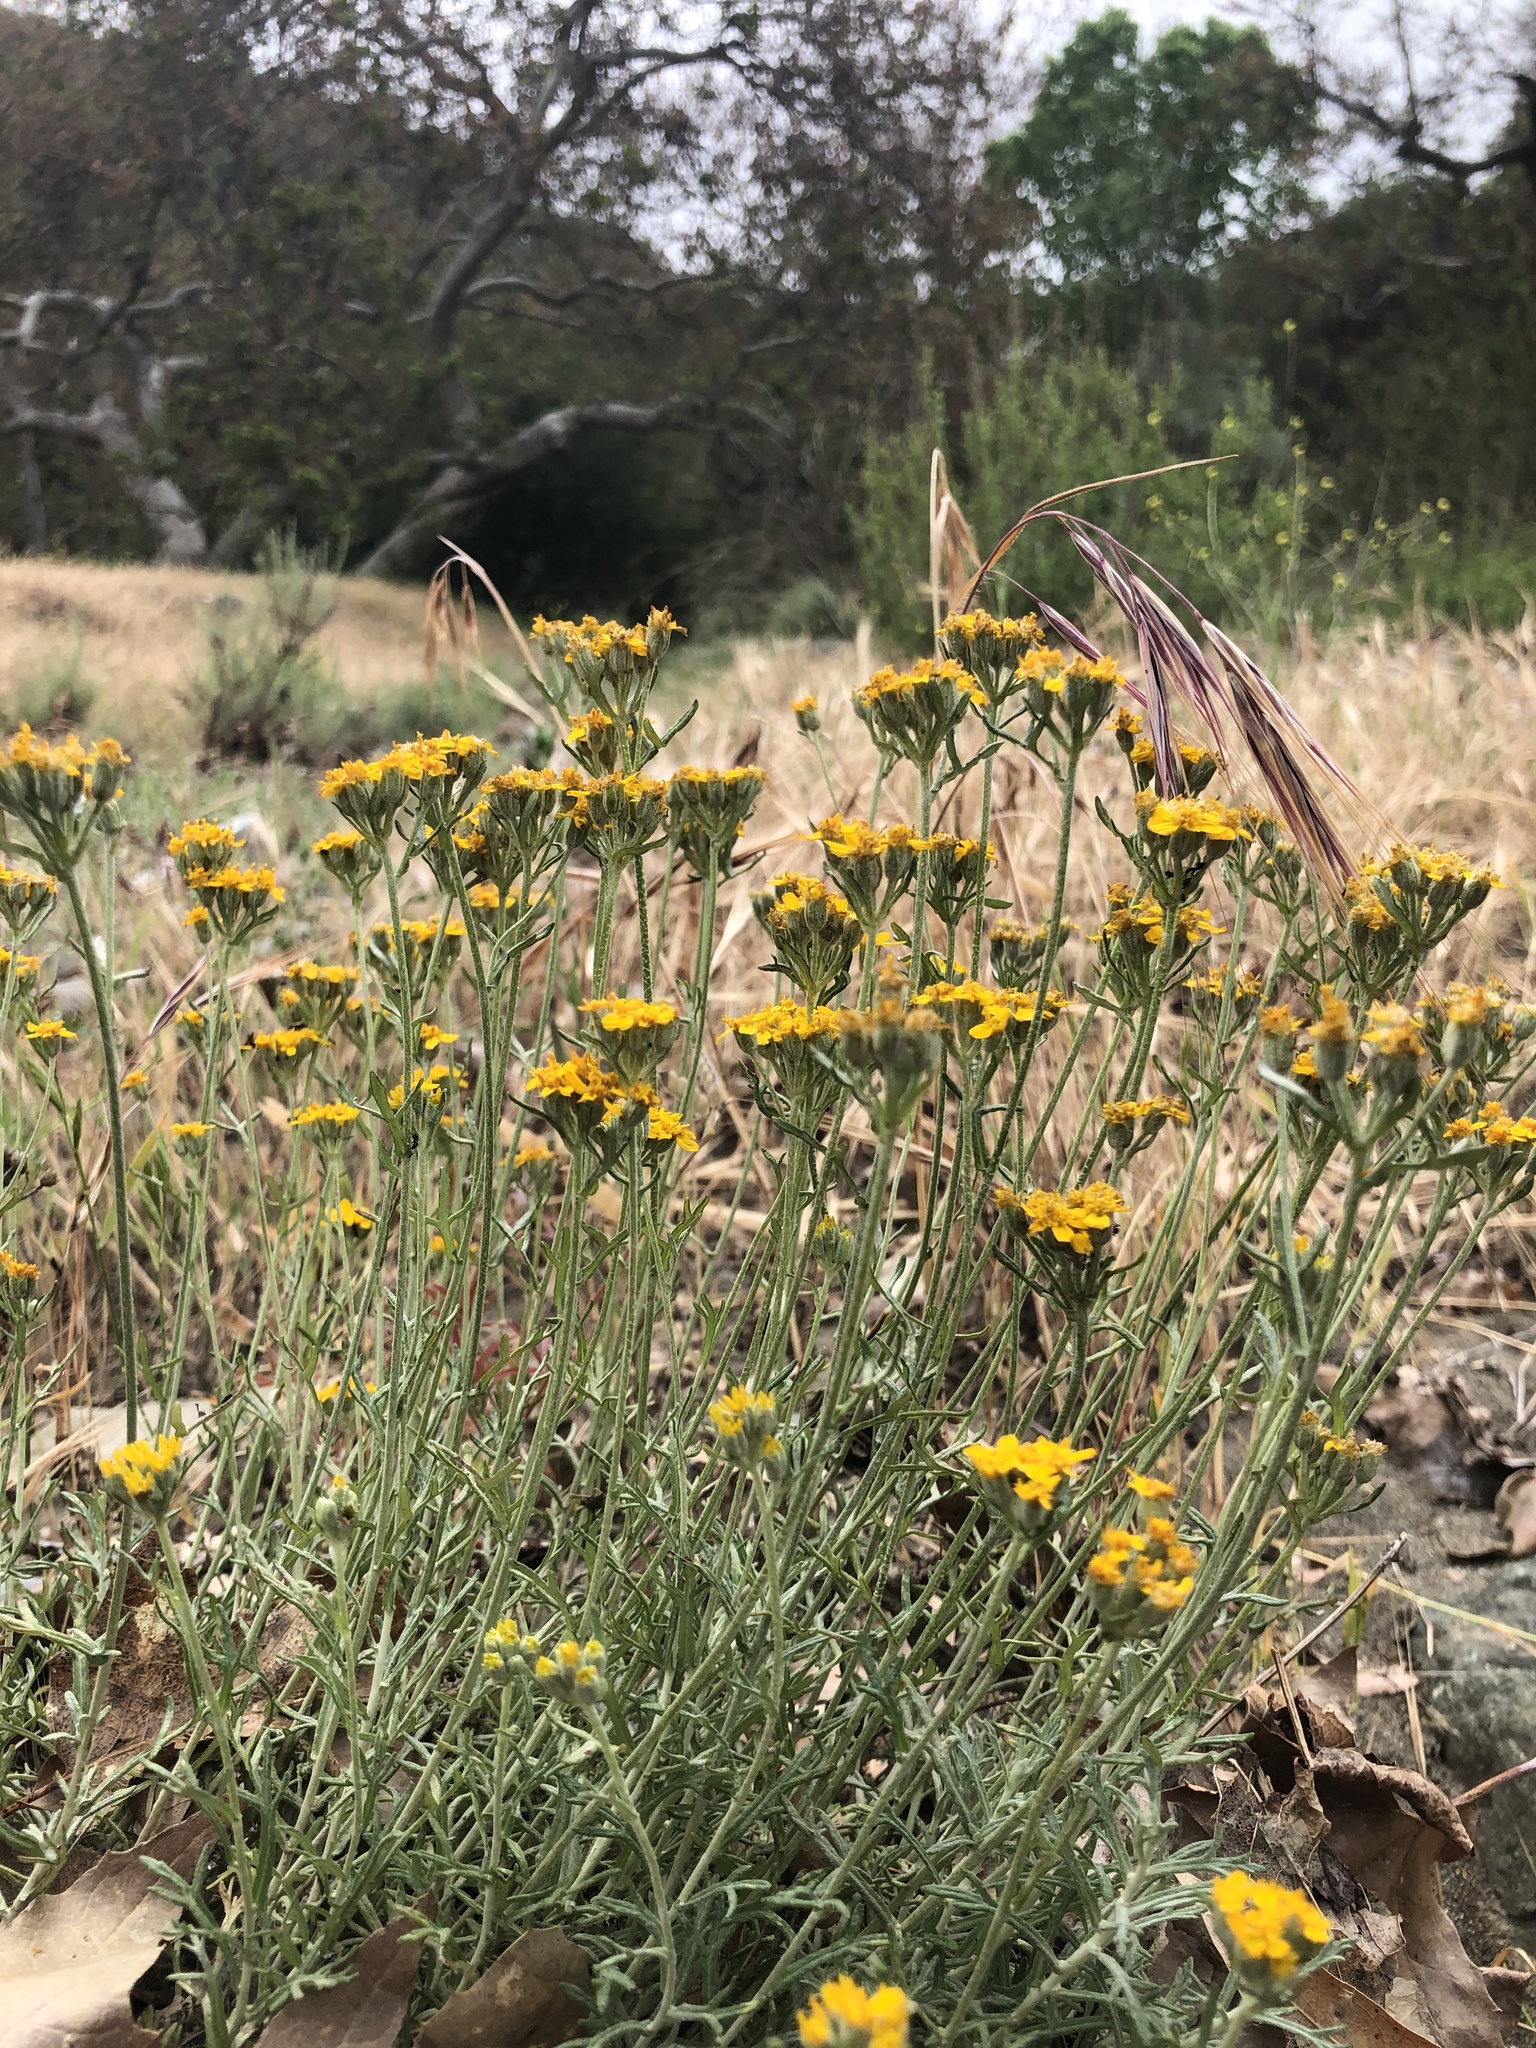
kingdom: Plantae
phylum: Tracheophyta
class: Magnoliopsida
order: Asterales
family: Asteraceae
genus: Eriophyllum
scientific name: Eriophyllum confertiflorum
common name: Golden-yarrow
